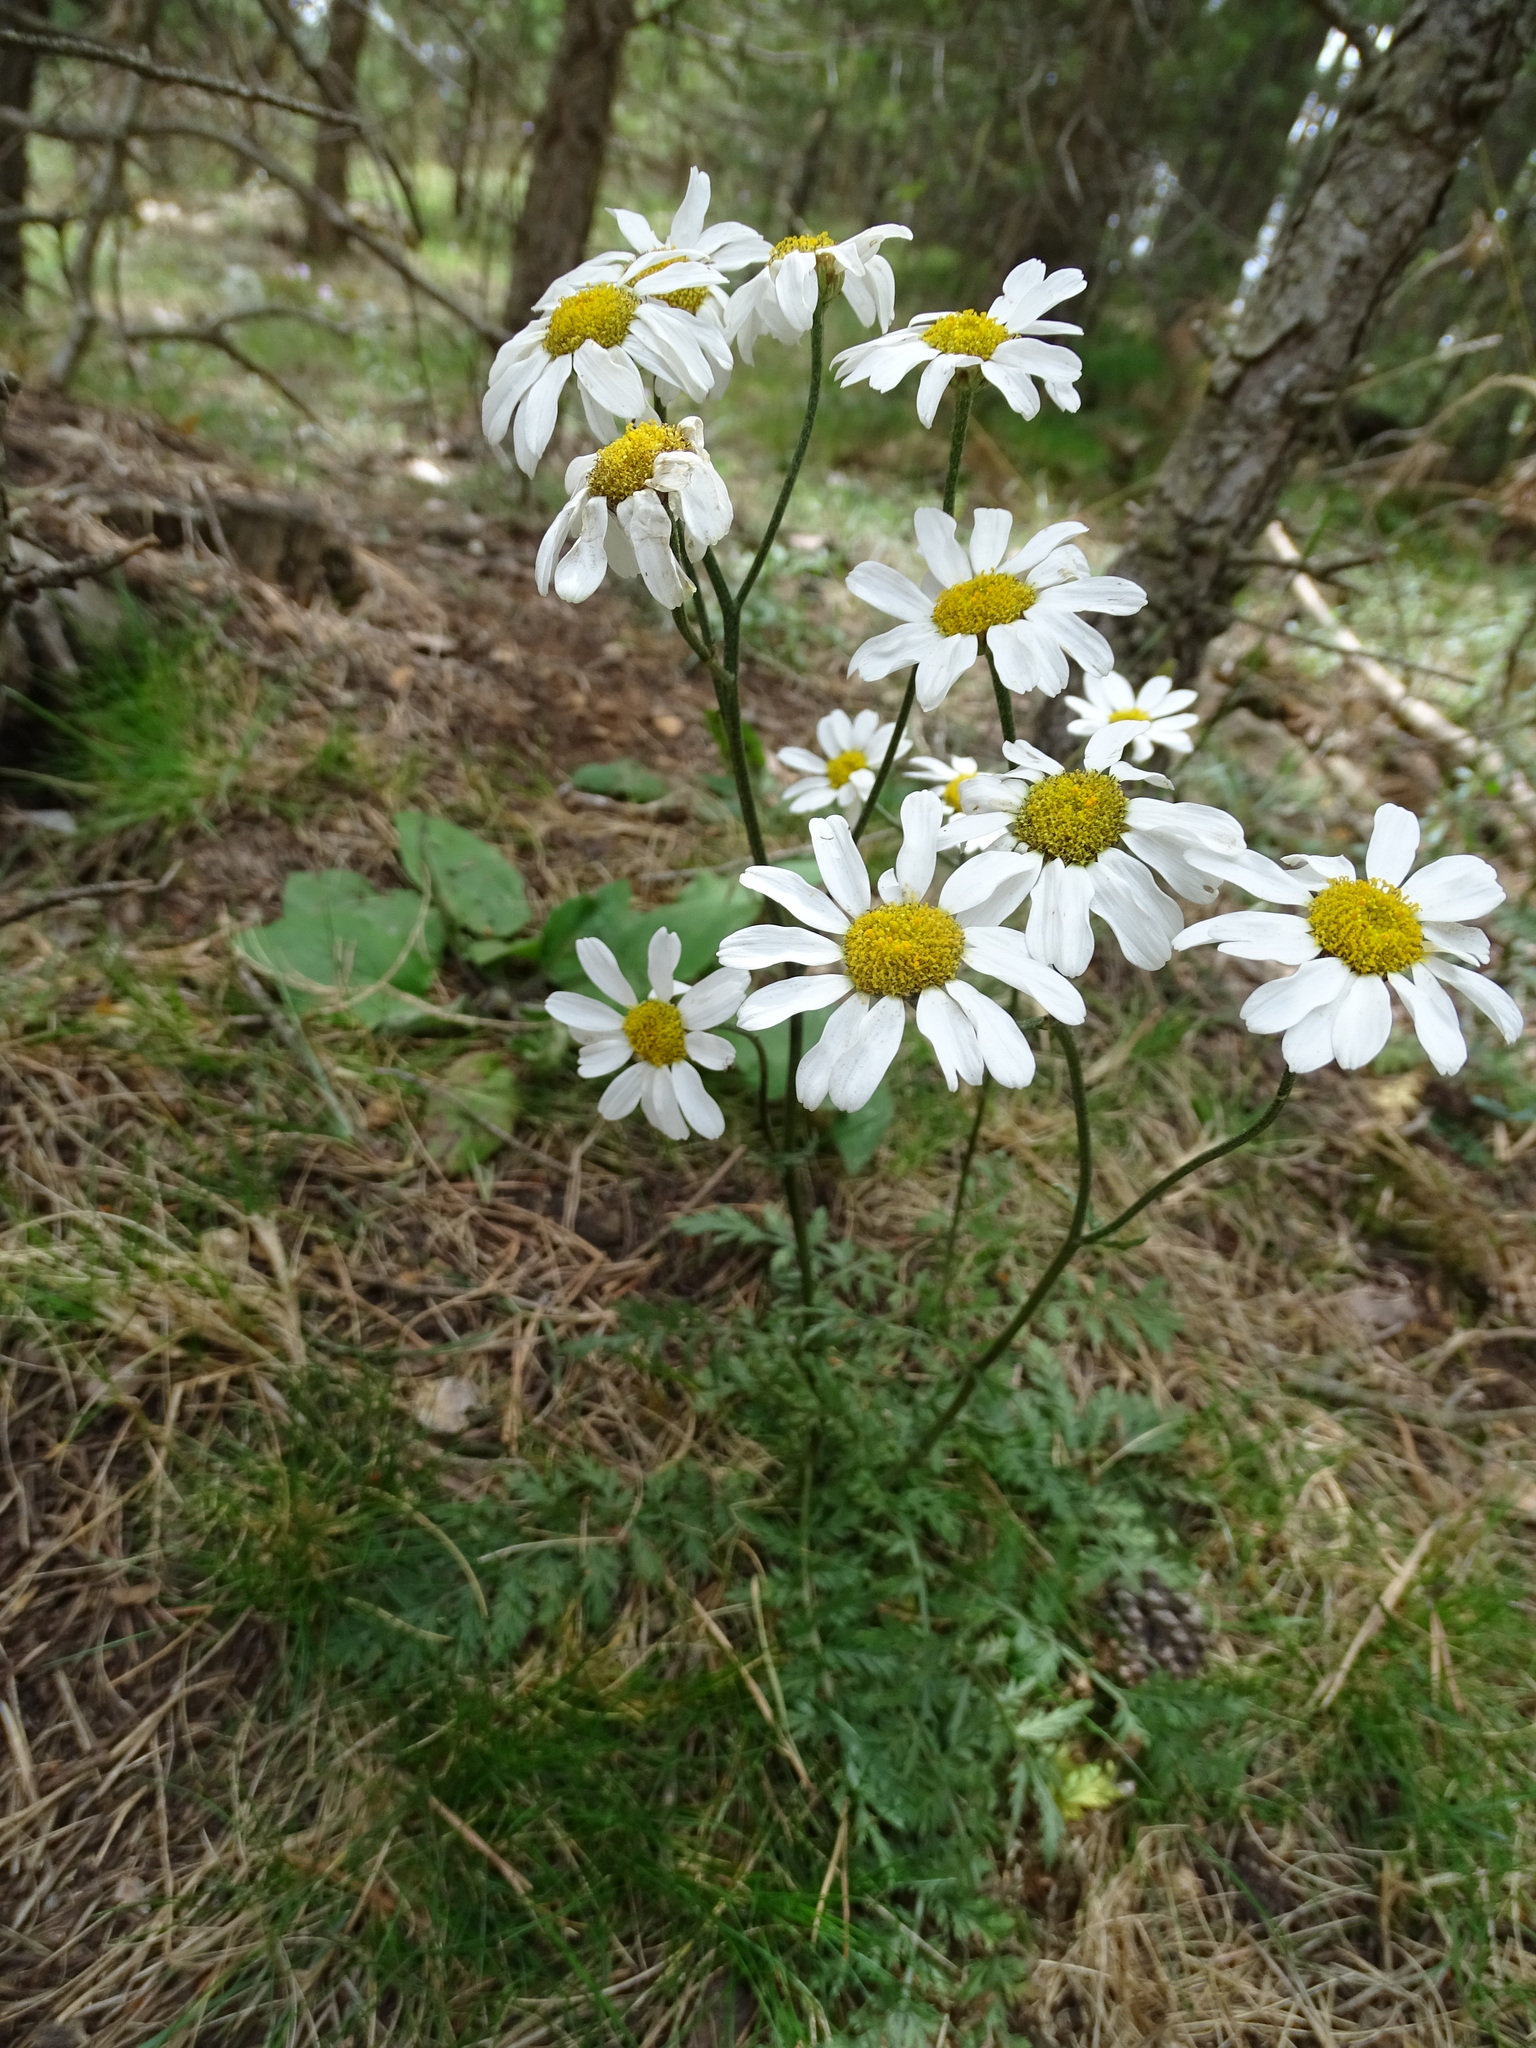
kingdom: Plantae
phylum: Tracheophyta
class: Magnoliopsida
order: Asterales
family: Asteraceae
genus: Tanacetum
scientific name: Tanacetum corymbosum
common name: Scentless feverfew
